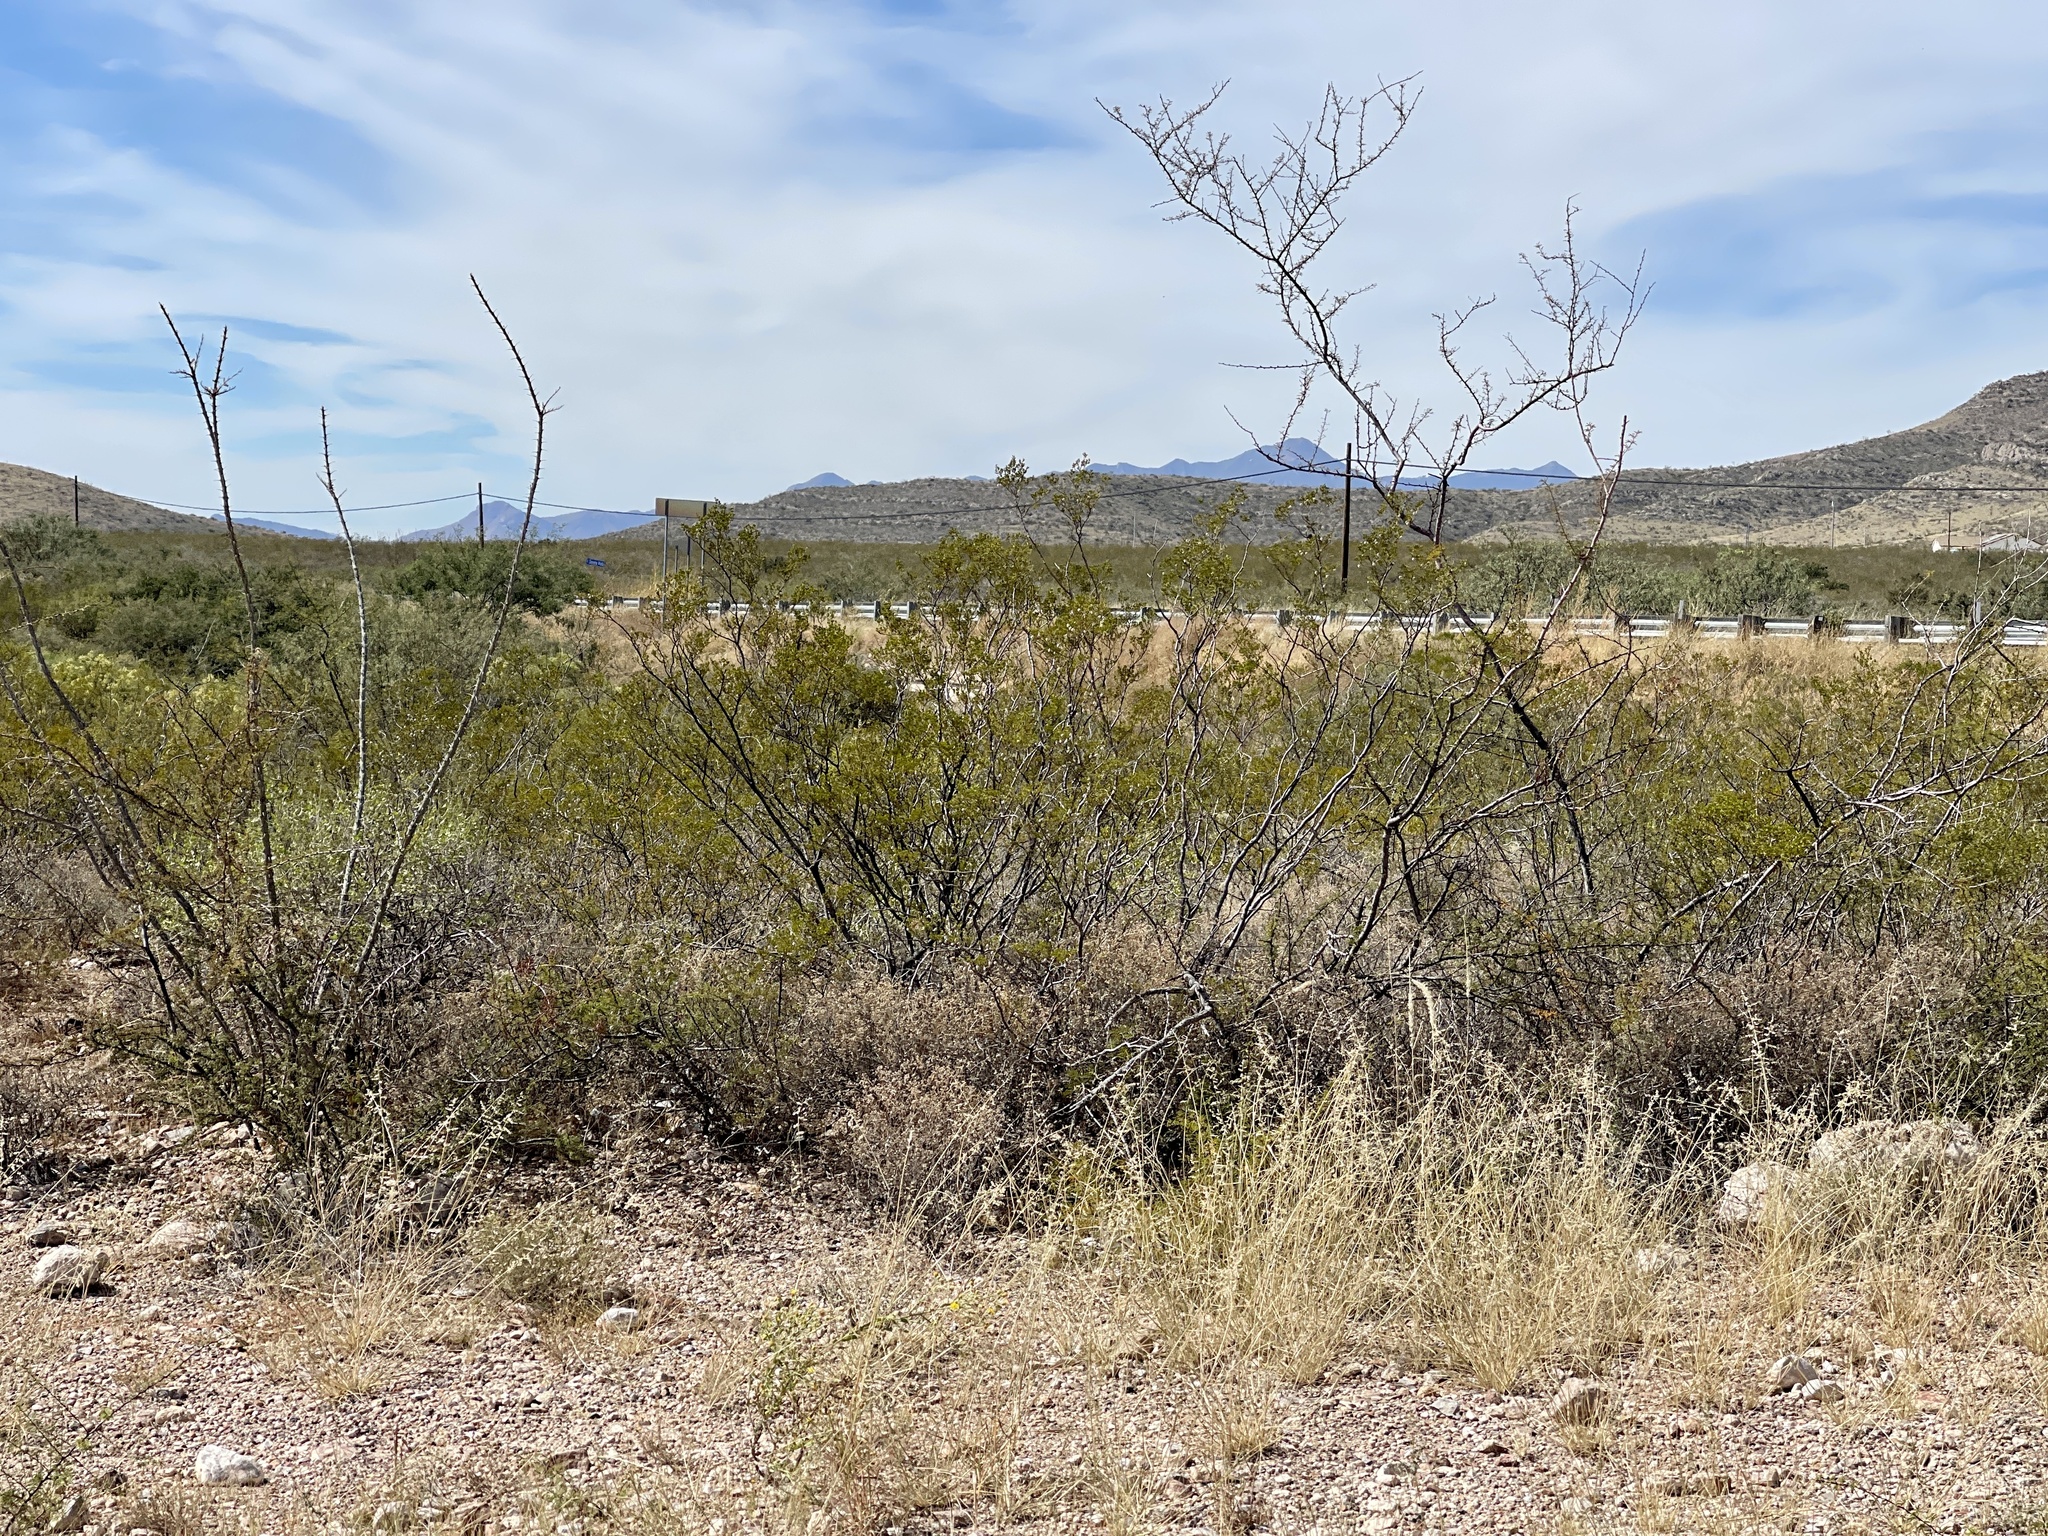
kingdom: Plantae
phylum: Tracheophyta
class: Magnoliopsida
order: Zygophyllales
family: Zygophyllaceae
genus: Larrea
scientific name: Larrea tridentata
